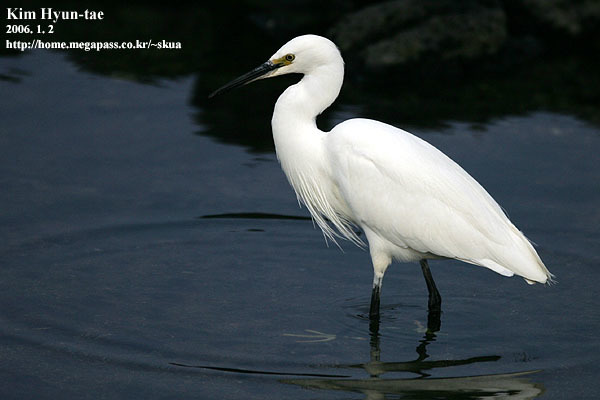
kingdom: Animalia
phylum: Chordata
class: Aves
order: Pelecaniformes
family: Ardeidae
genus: Egretta
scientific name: Egretta garzetta
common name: Little egret
